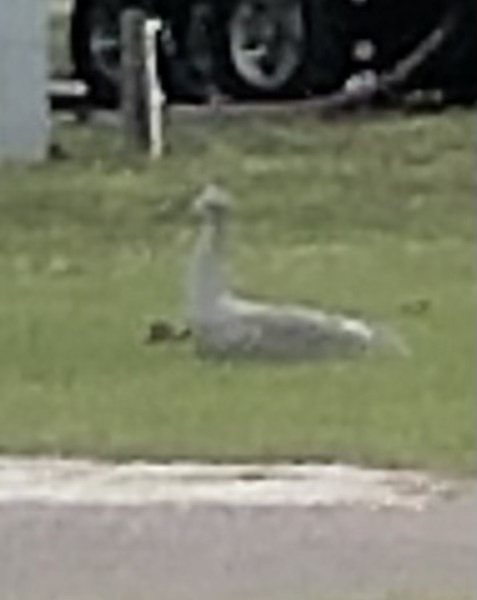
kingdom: Animalia
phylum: Chordata
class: Aves
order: Gruiformes
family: Gruidae
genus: Grus
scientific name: Grus canadensis
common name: Sandhill crane
